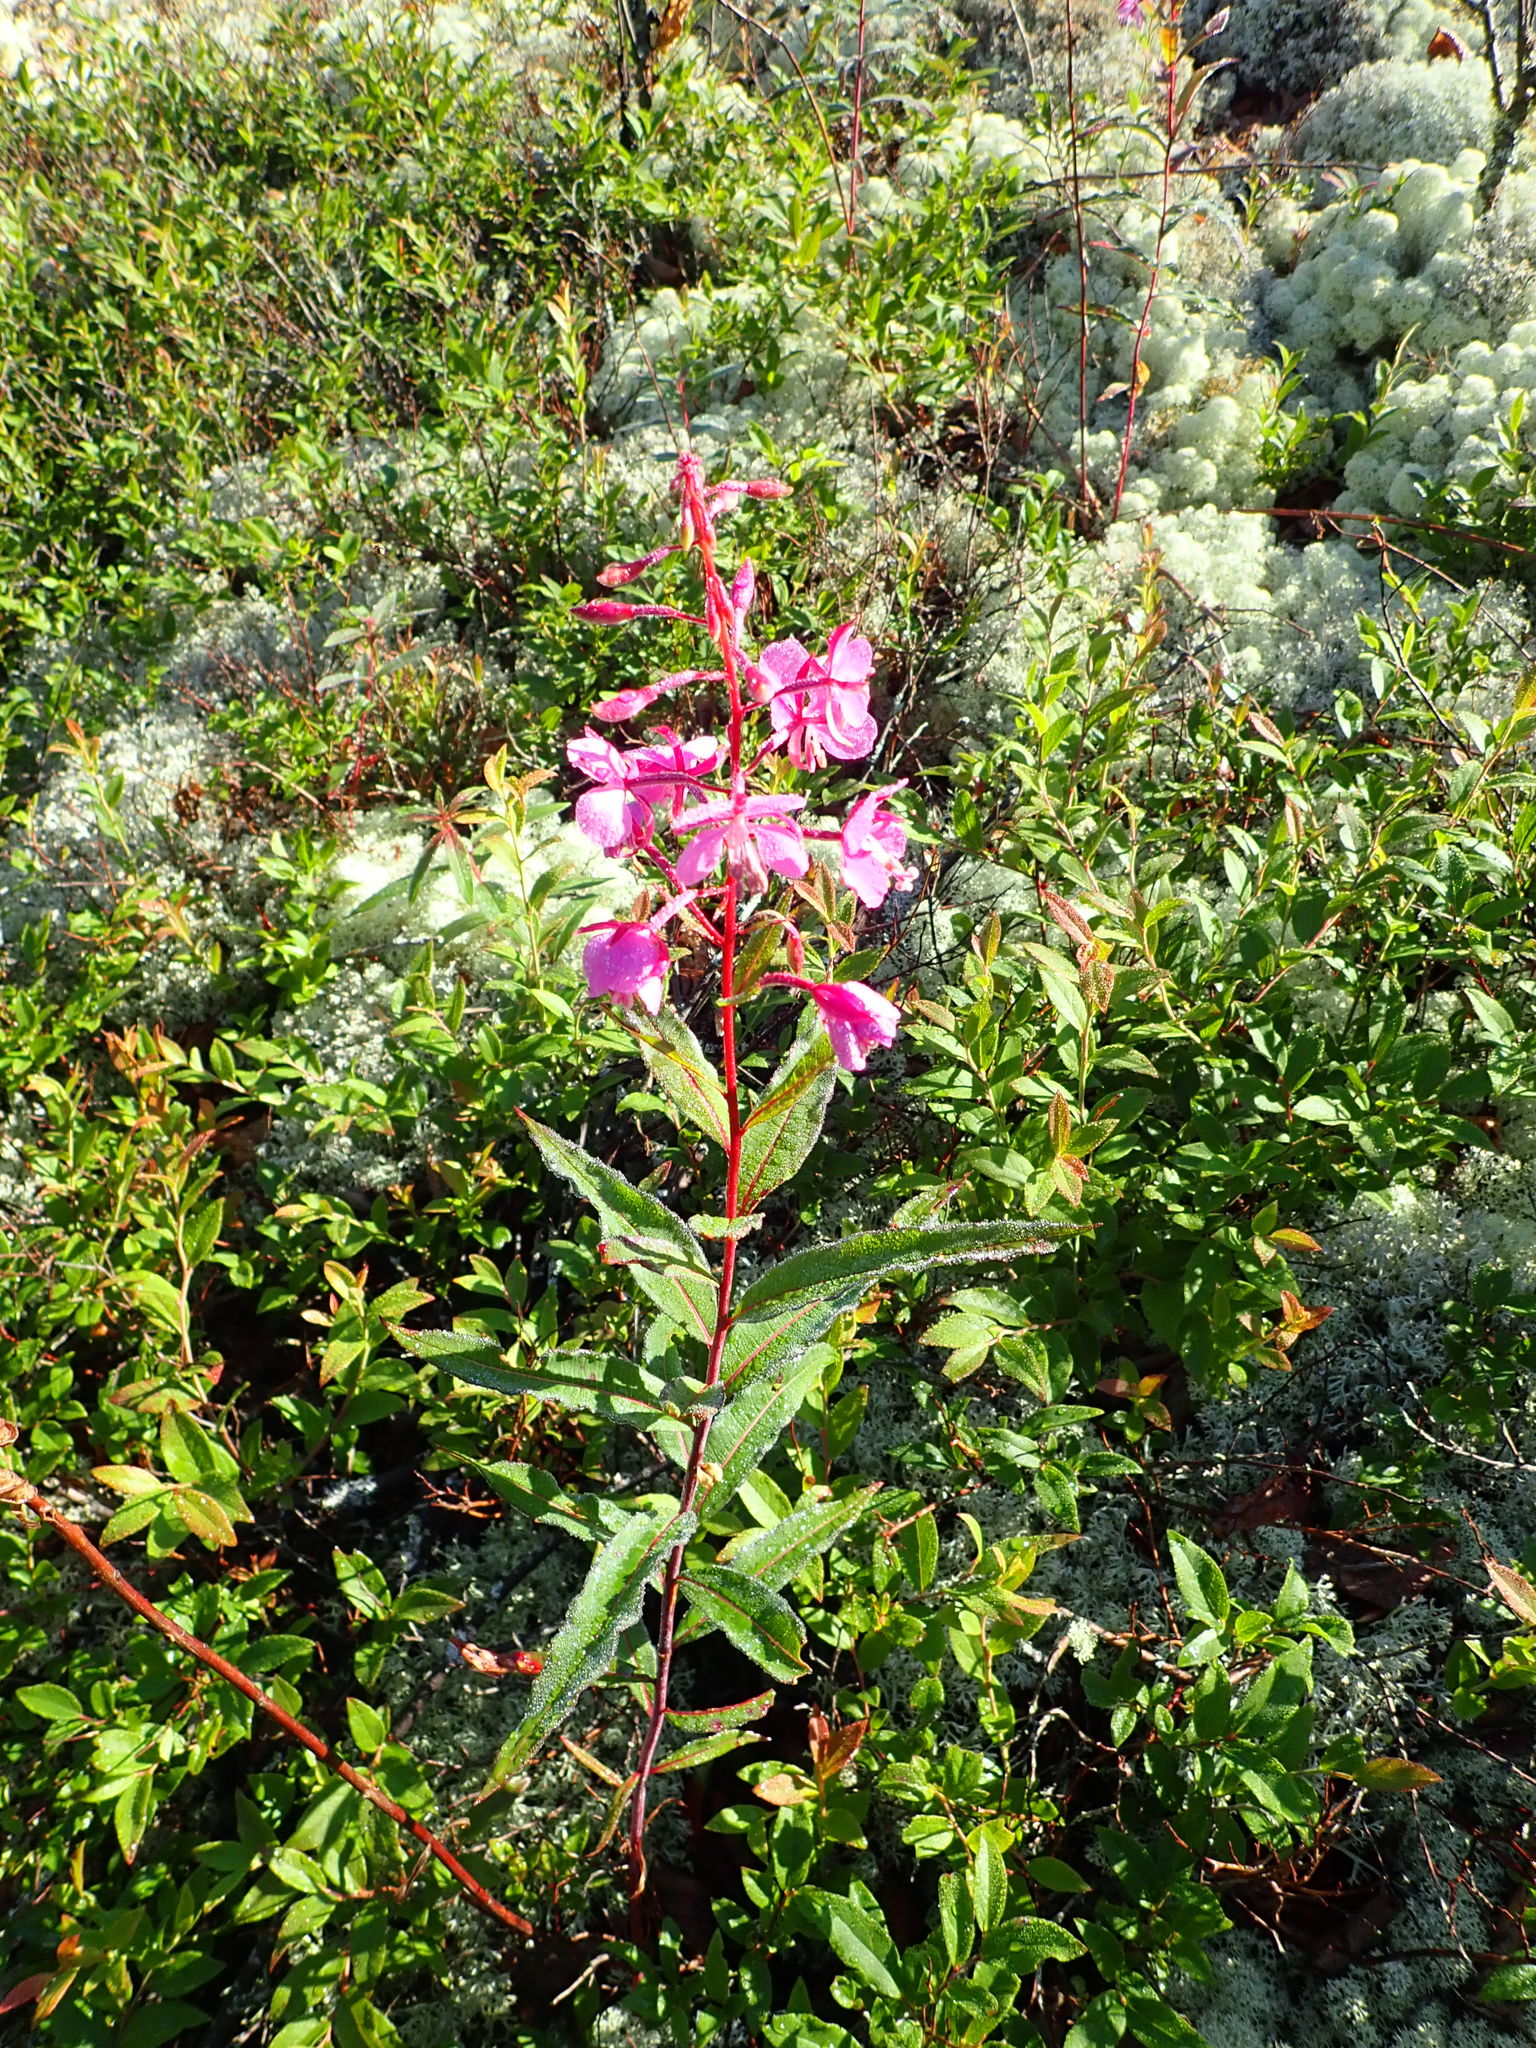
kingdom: Plantae
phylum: Tracheophyta
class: Magnoliopsida
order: Myrtales
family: Onagraceae
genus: Chamaenerion
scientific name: Chamaenerion angustifolium
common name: Fireweed
